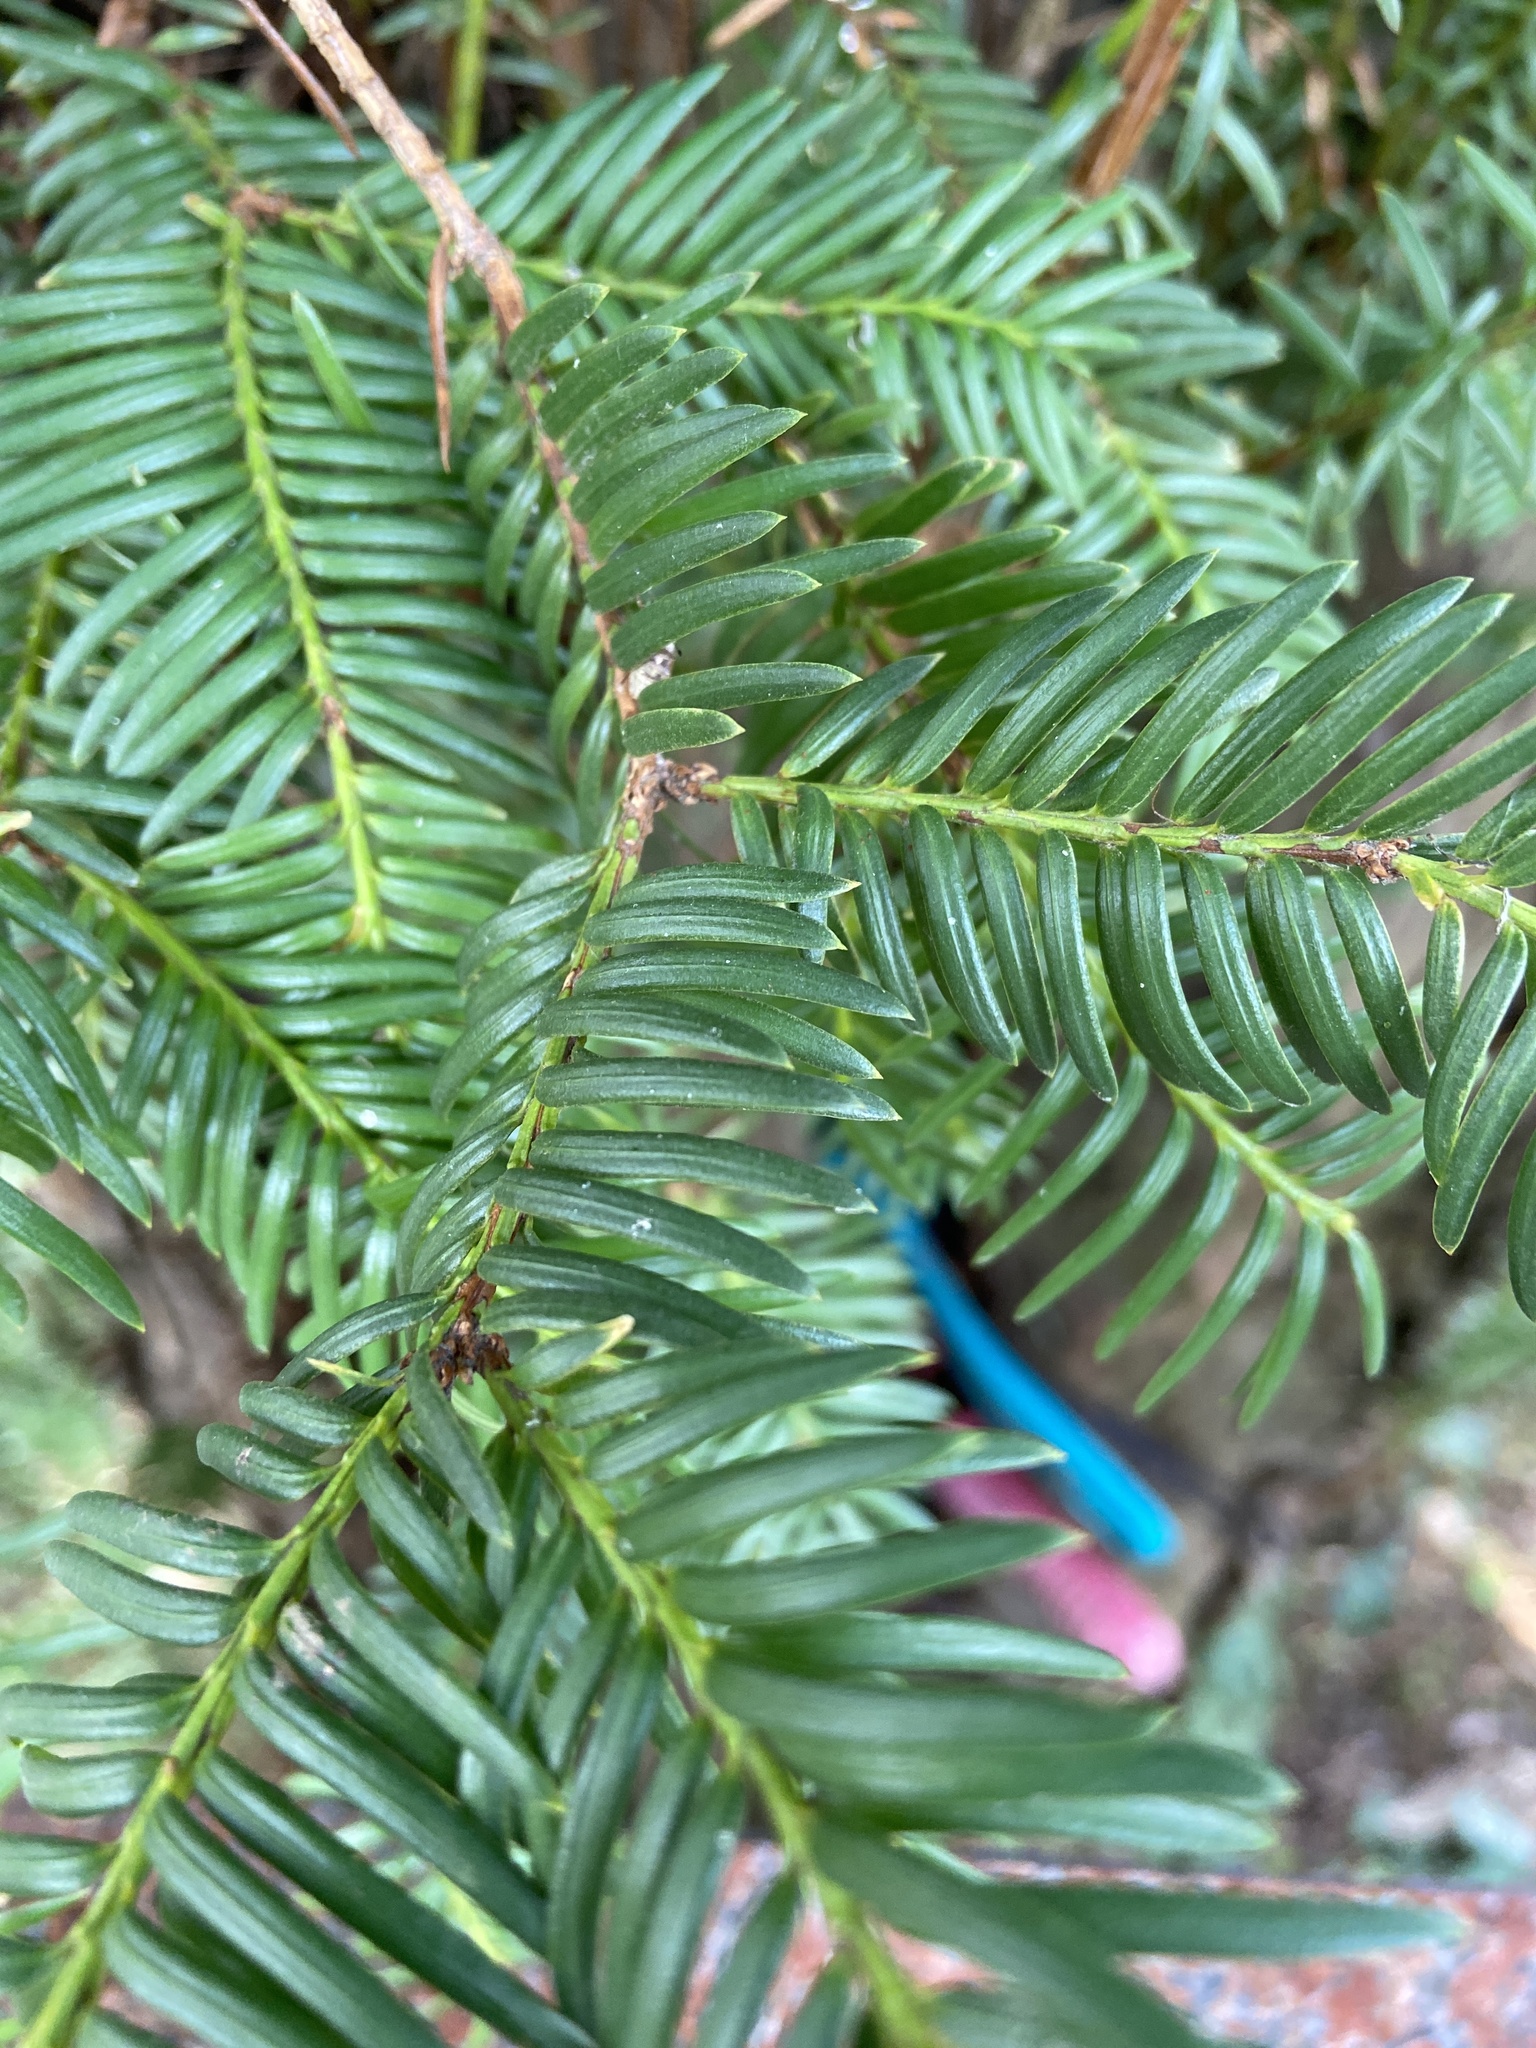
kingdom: Plantae
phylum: Tracheophyta
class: Pinopsida
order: Pinales
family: Taxaceae
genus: Taxus
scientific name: Taxus baccata
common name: Yew
